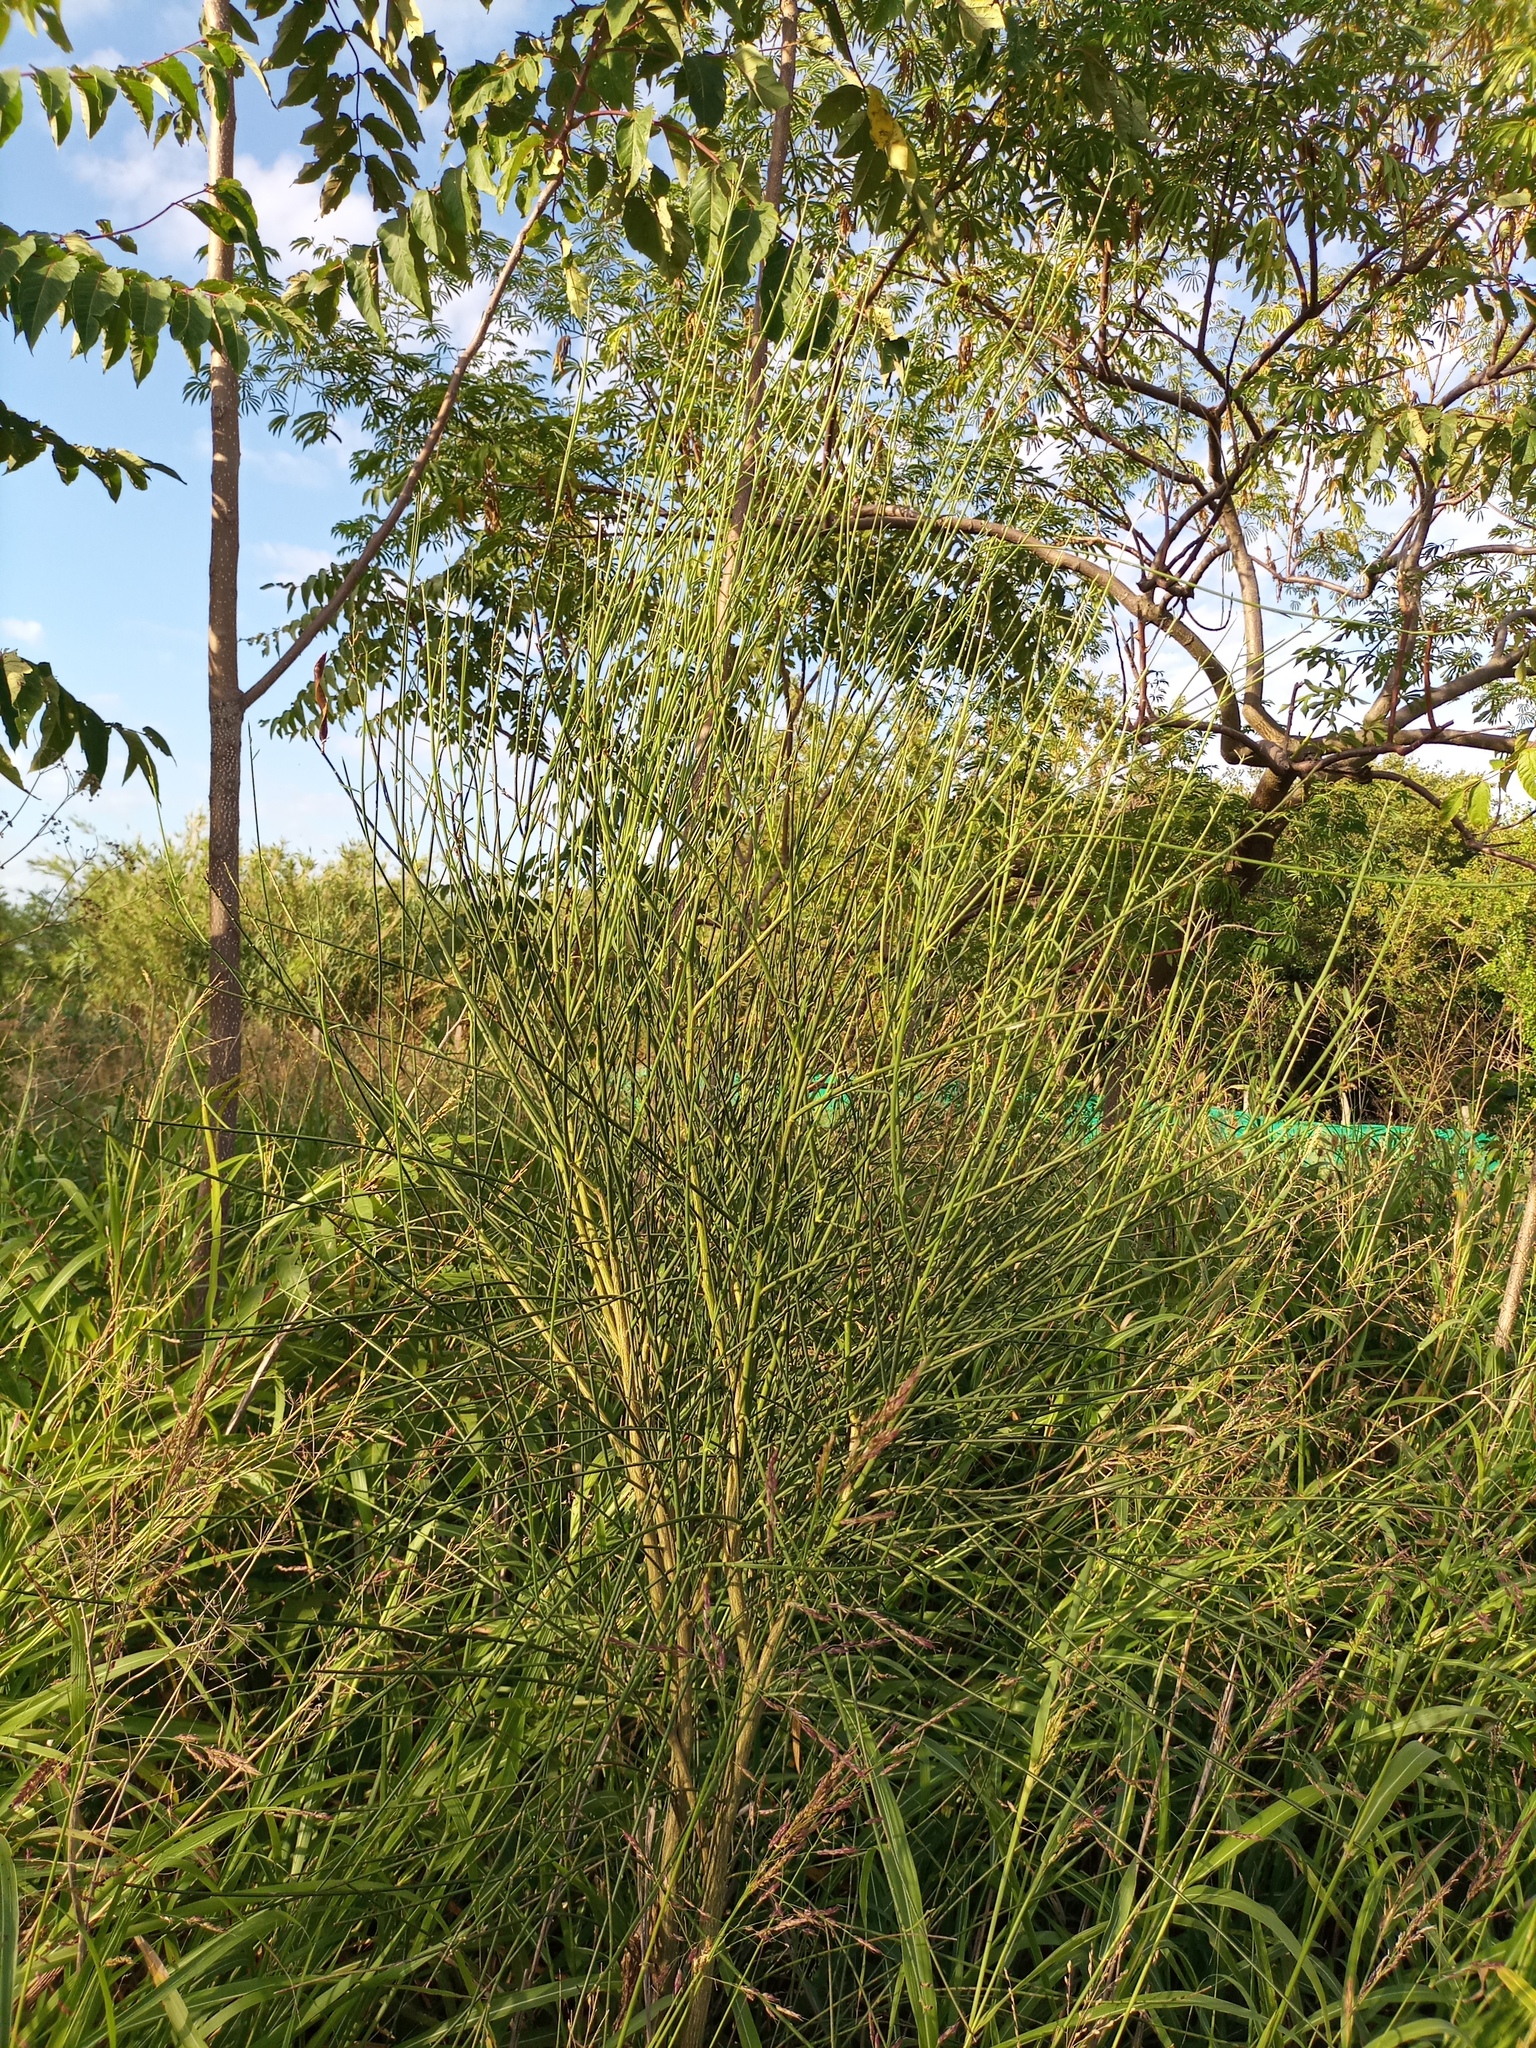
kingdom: Plantae
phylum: Tracheophyta
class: Magnoliopsida
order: Fabales
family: Fabaceae
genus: Spartium
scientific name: Spartium junceum
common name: Spanish broom
